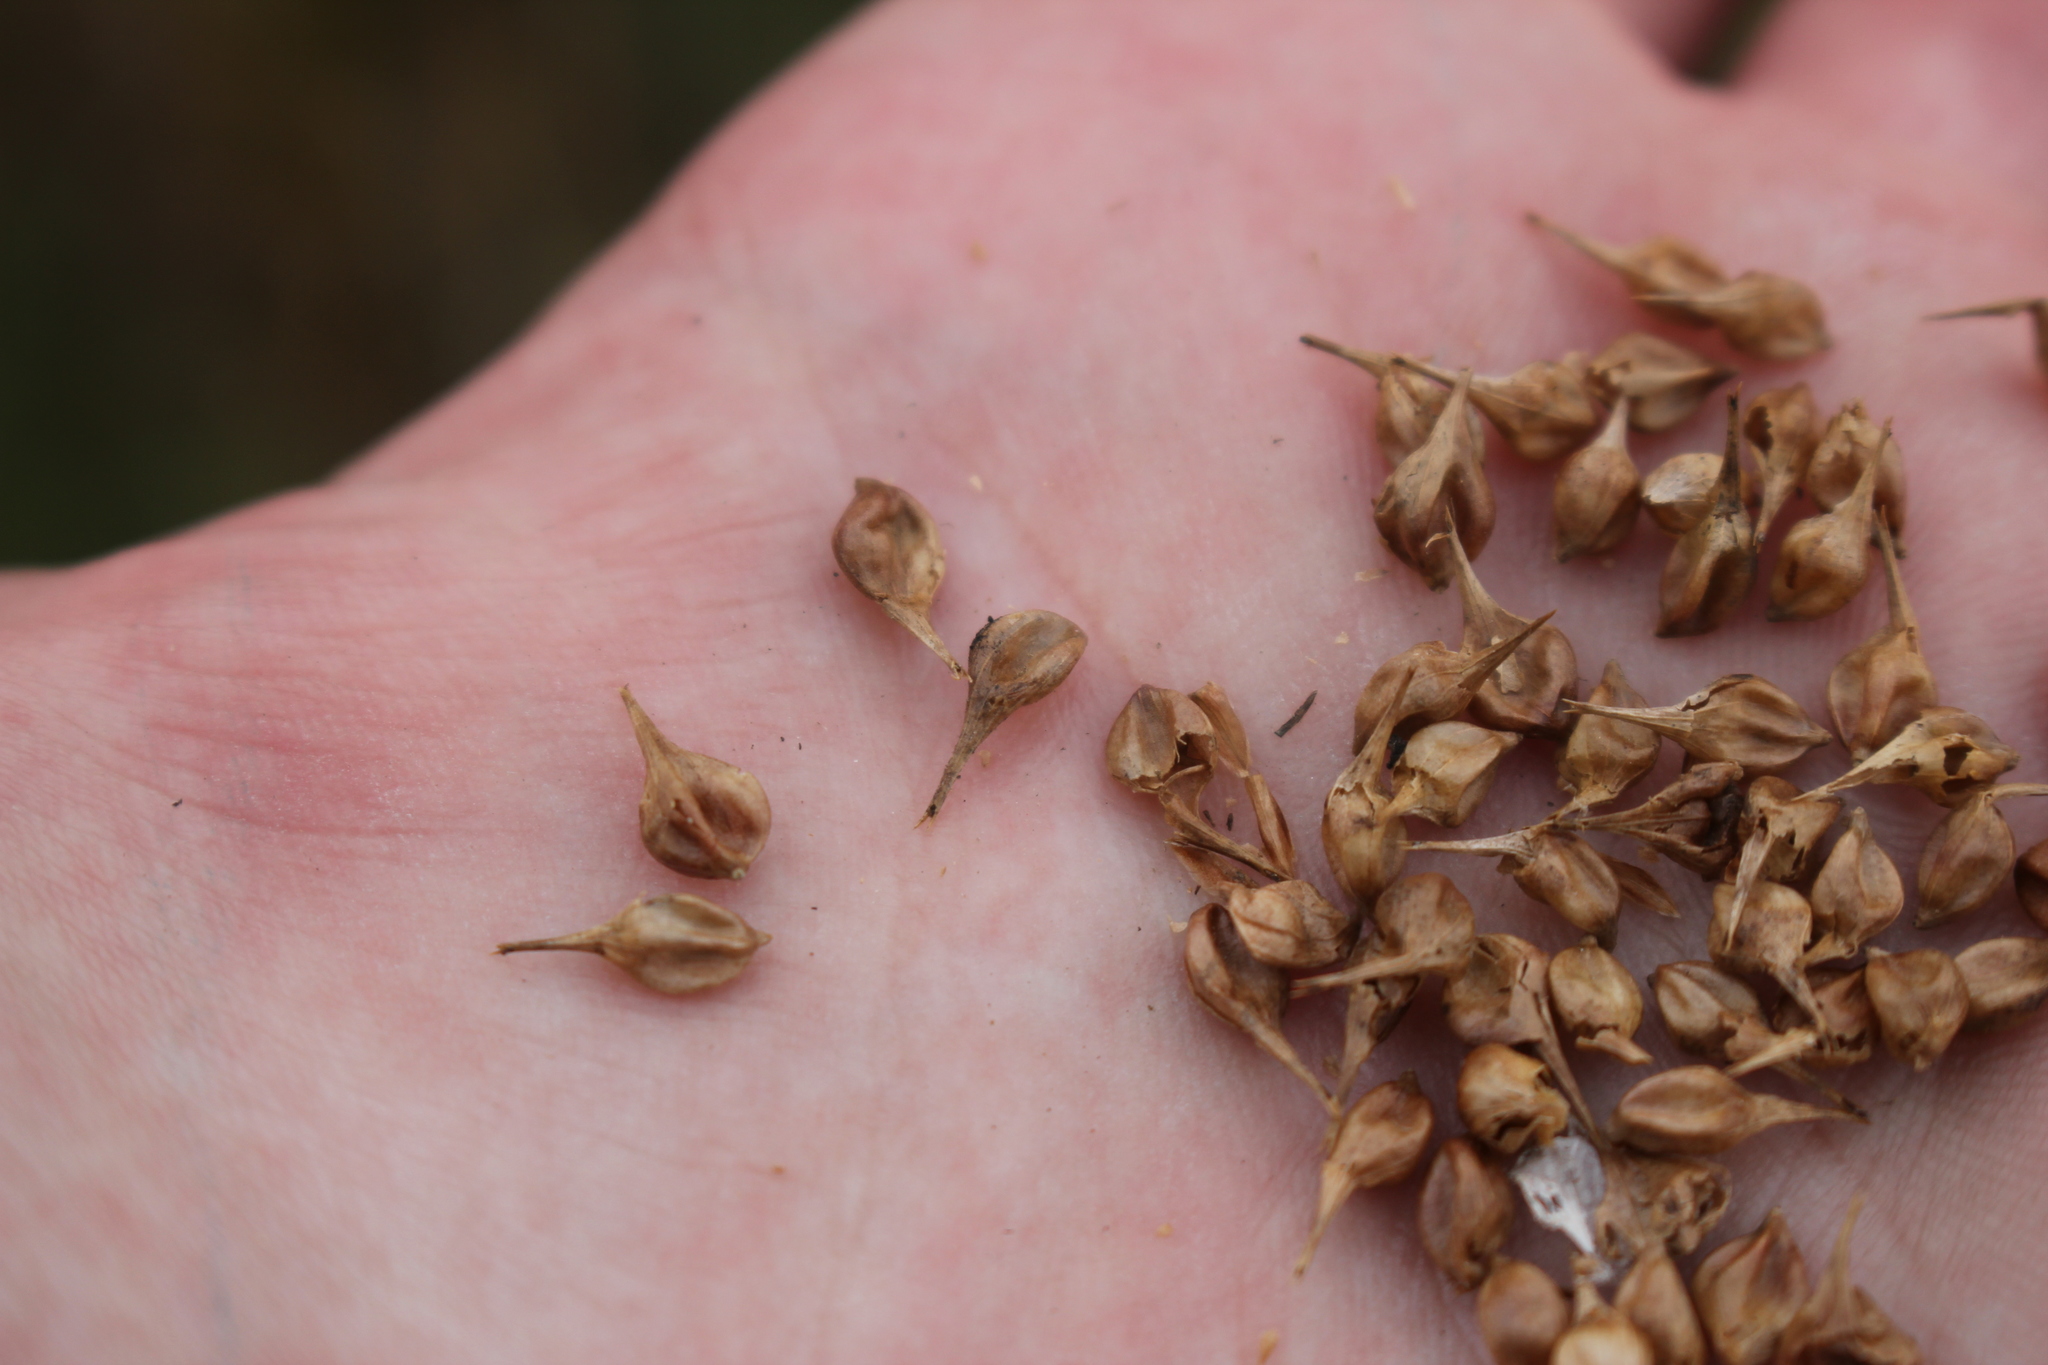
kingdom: Plantae
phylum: Tracheophyta
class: Liliopsida
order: Poales
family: Cyperaceae
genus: Carex
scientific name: Carex retrorsa
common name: Knot-sheath sedge
